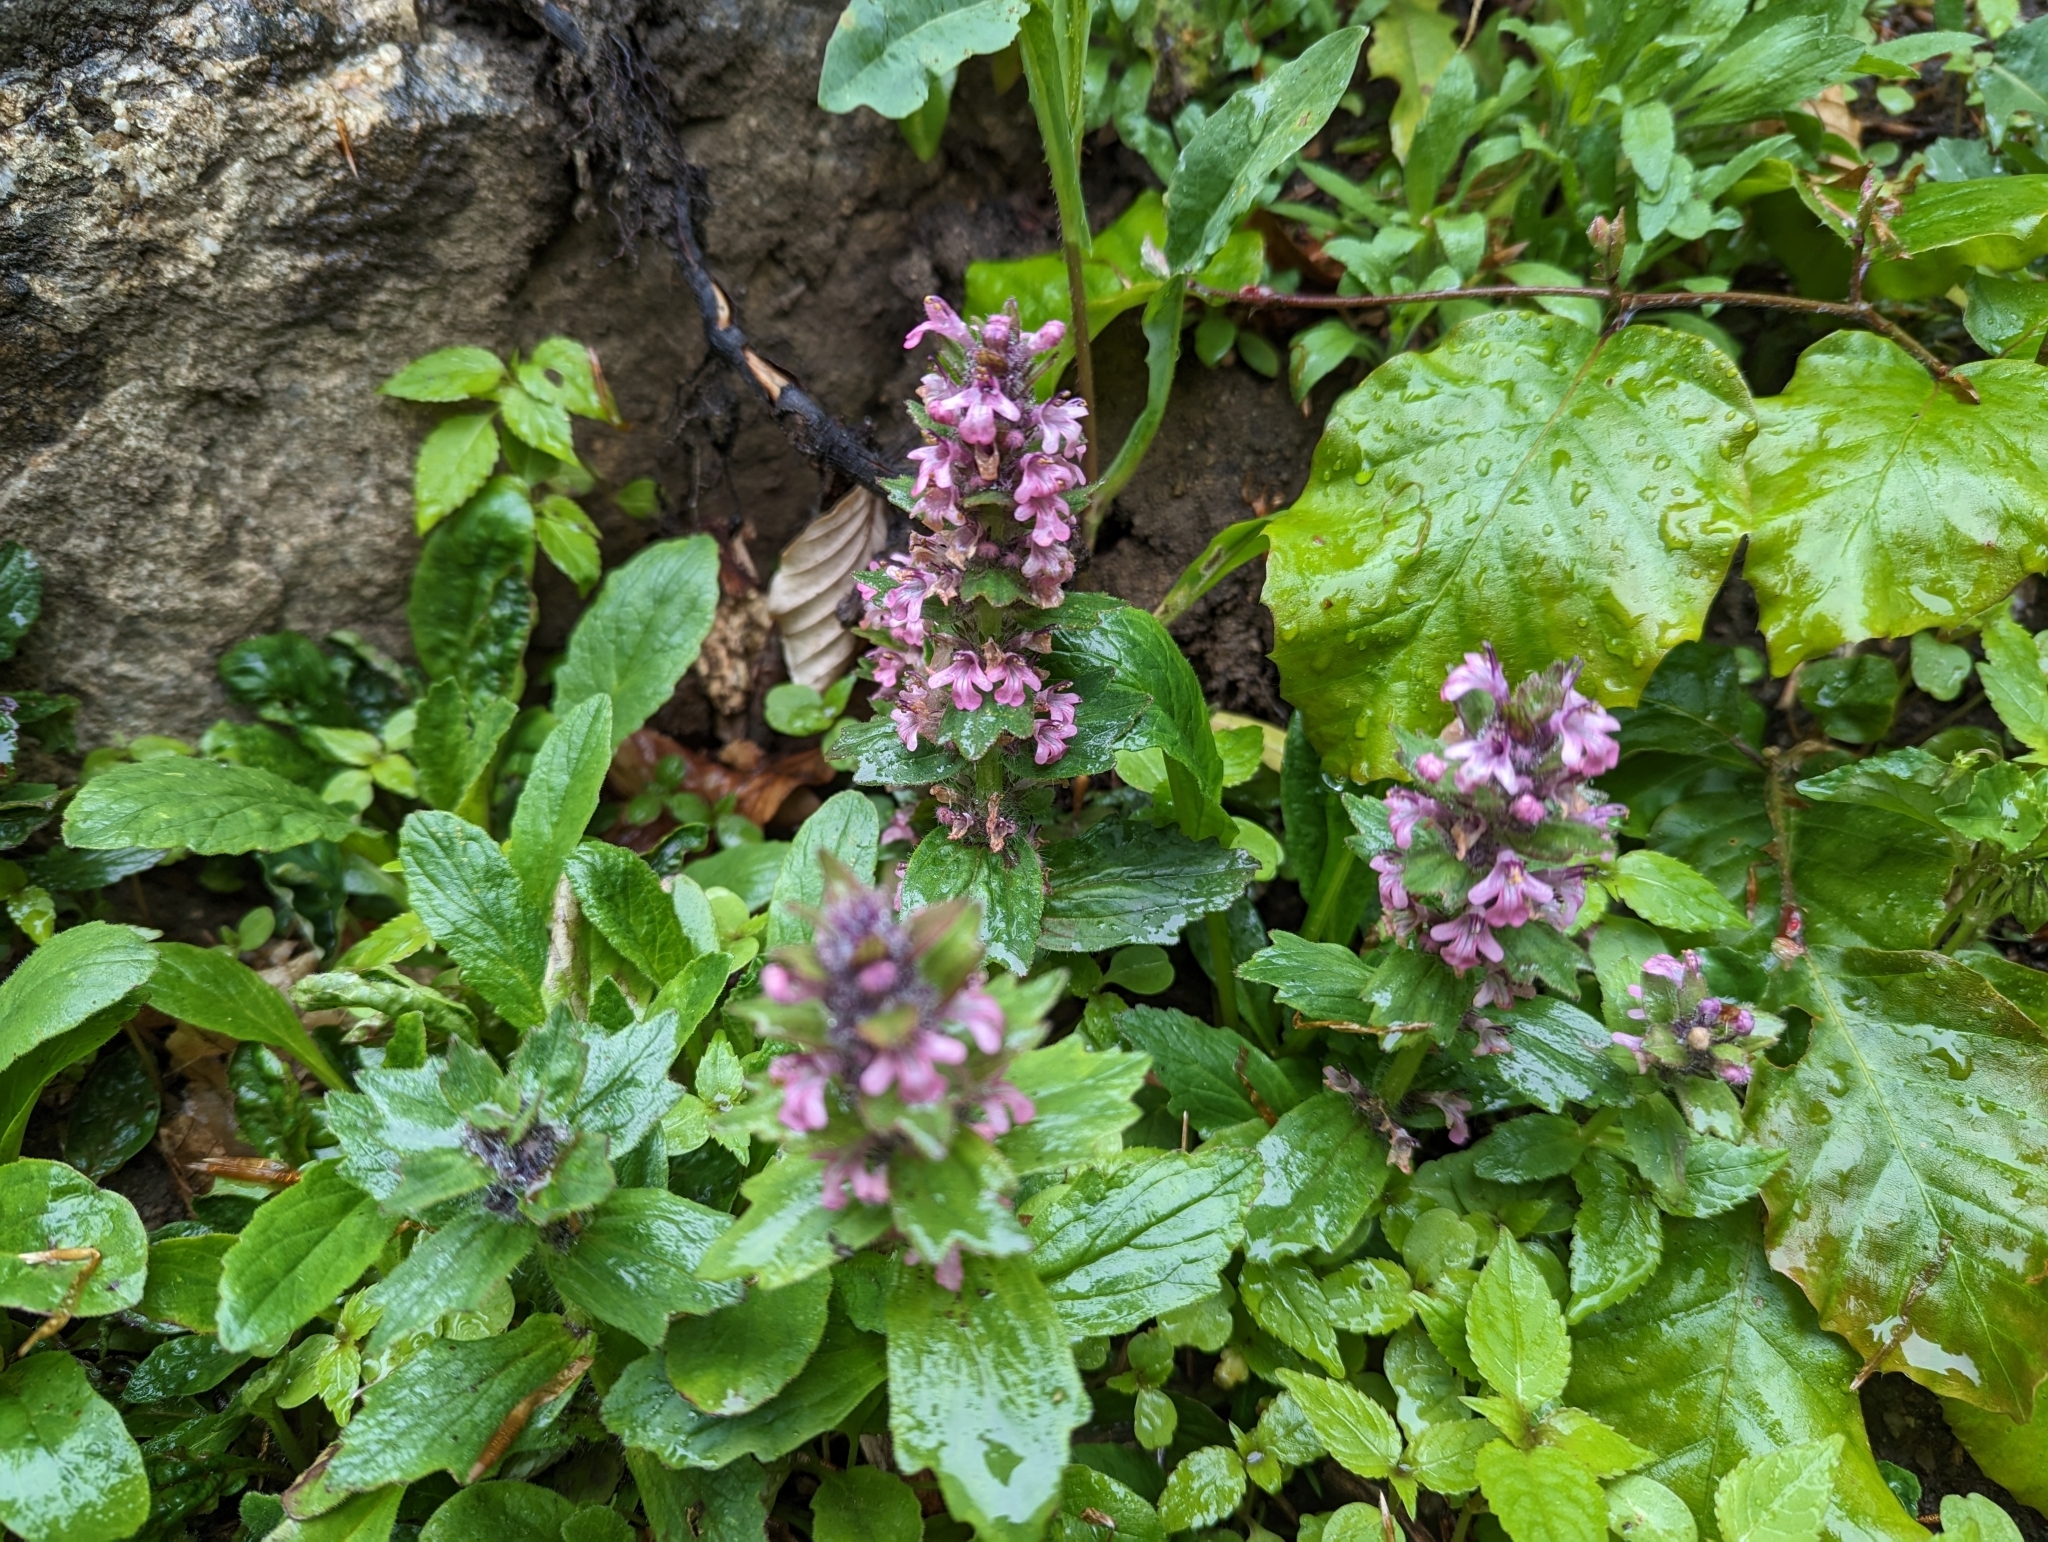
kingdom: Plantae
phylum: Tracheophyta
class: Magnoliopsida
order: Lamiales
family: Lamiaceae
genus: Ajuga
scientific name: Ajuga genevensis
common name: Blue bugle
